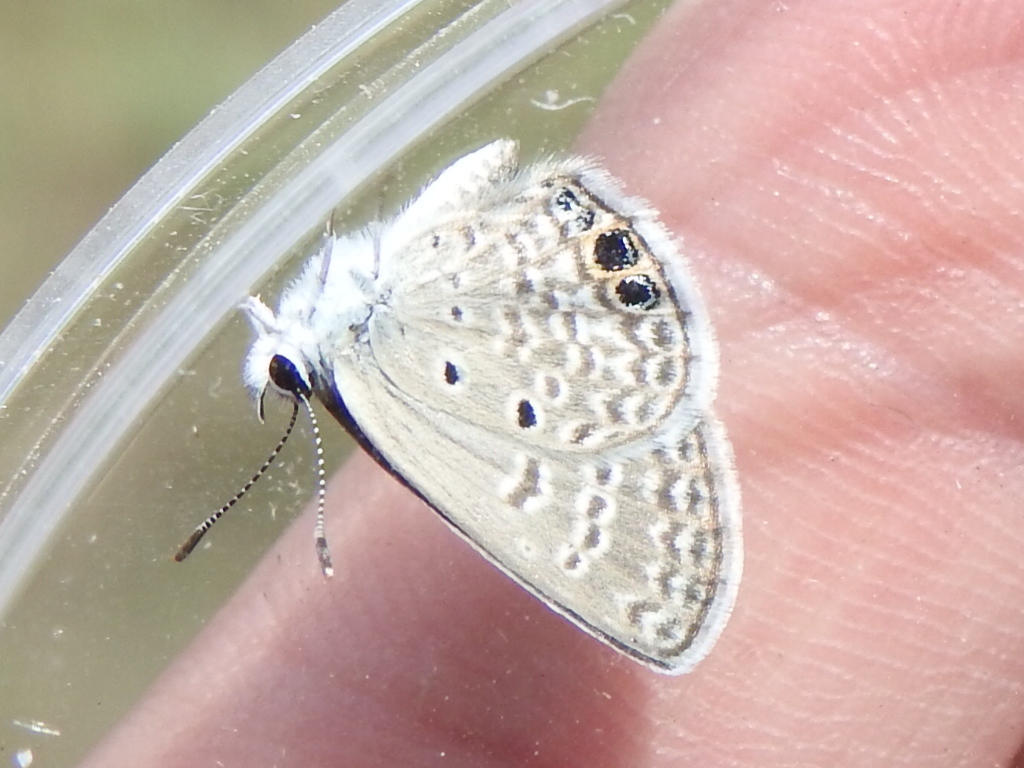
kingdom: Animalia
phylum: Arthropoda
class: Insecta
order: Lepidoptera
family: Lycaenidae
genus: Hemiargus
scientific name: Hemiargus ceraunus
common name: Ceraunus blue
